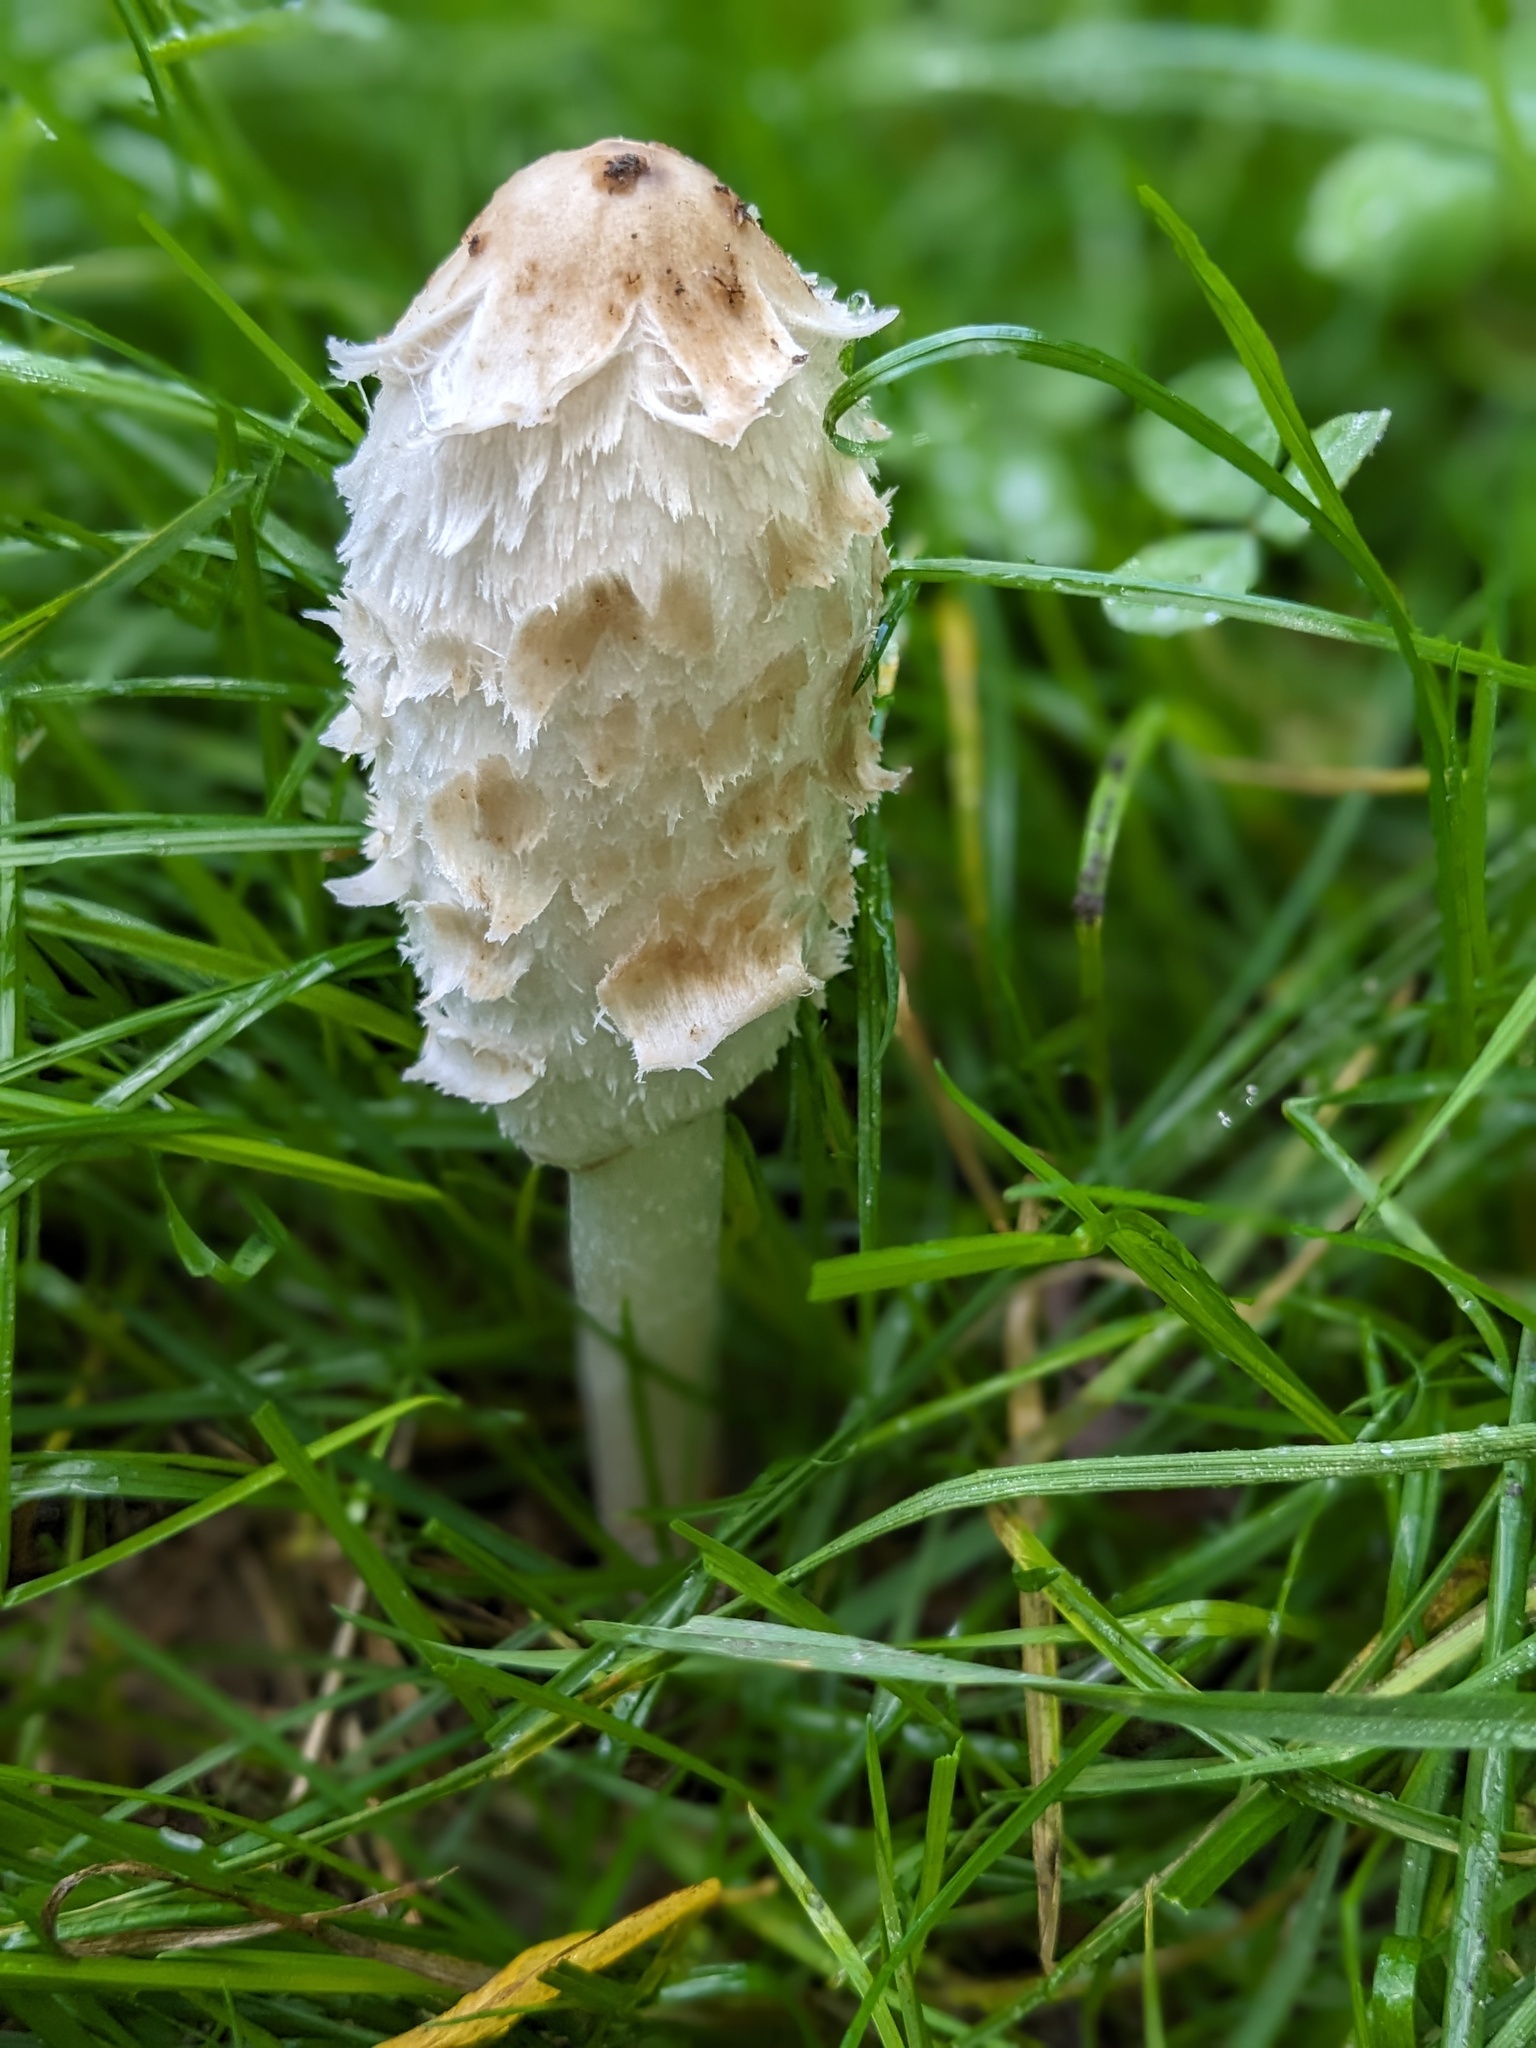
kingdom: Fungi
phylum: Basidiomycota
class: Agaricomycetes
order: Agaricales
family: Agaricaceae
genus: Coprinus
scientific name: Coprinus comatus
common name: Lawyer's wig
